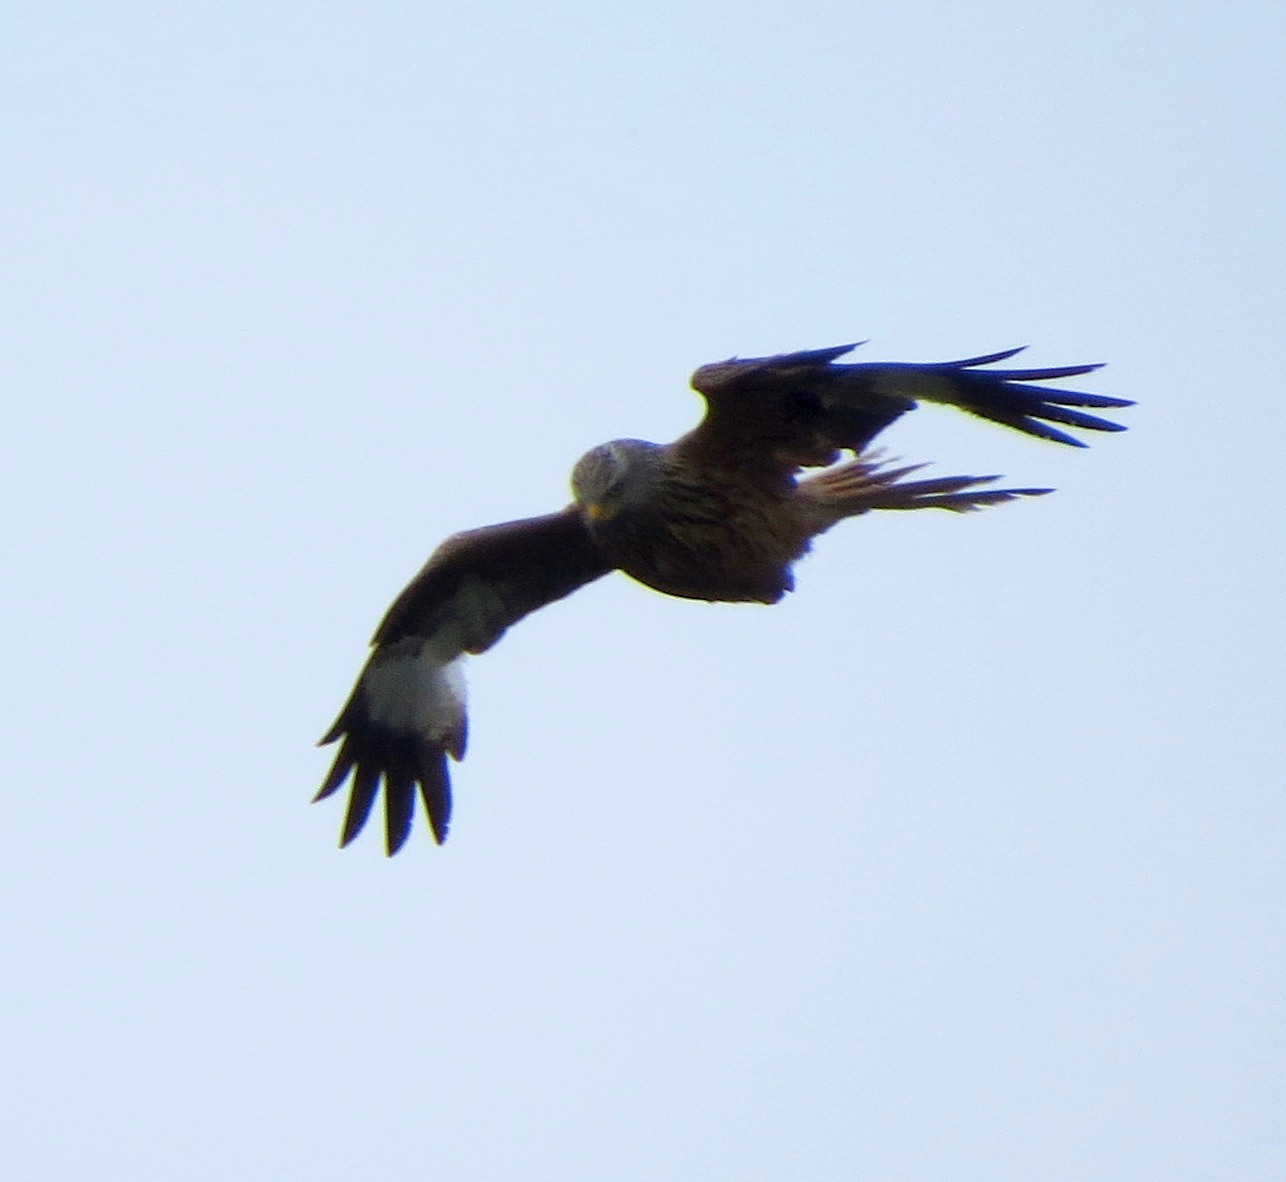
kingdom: Animalia
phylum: Chordata
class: Aves
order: Accipitriformes
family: Accipitridae
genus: Milvus
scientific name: Milvus milvus
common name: Red kite
